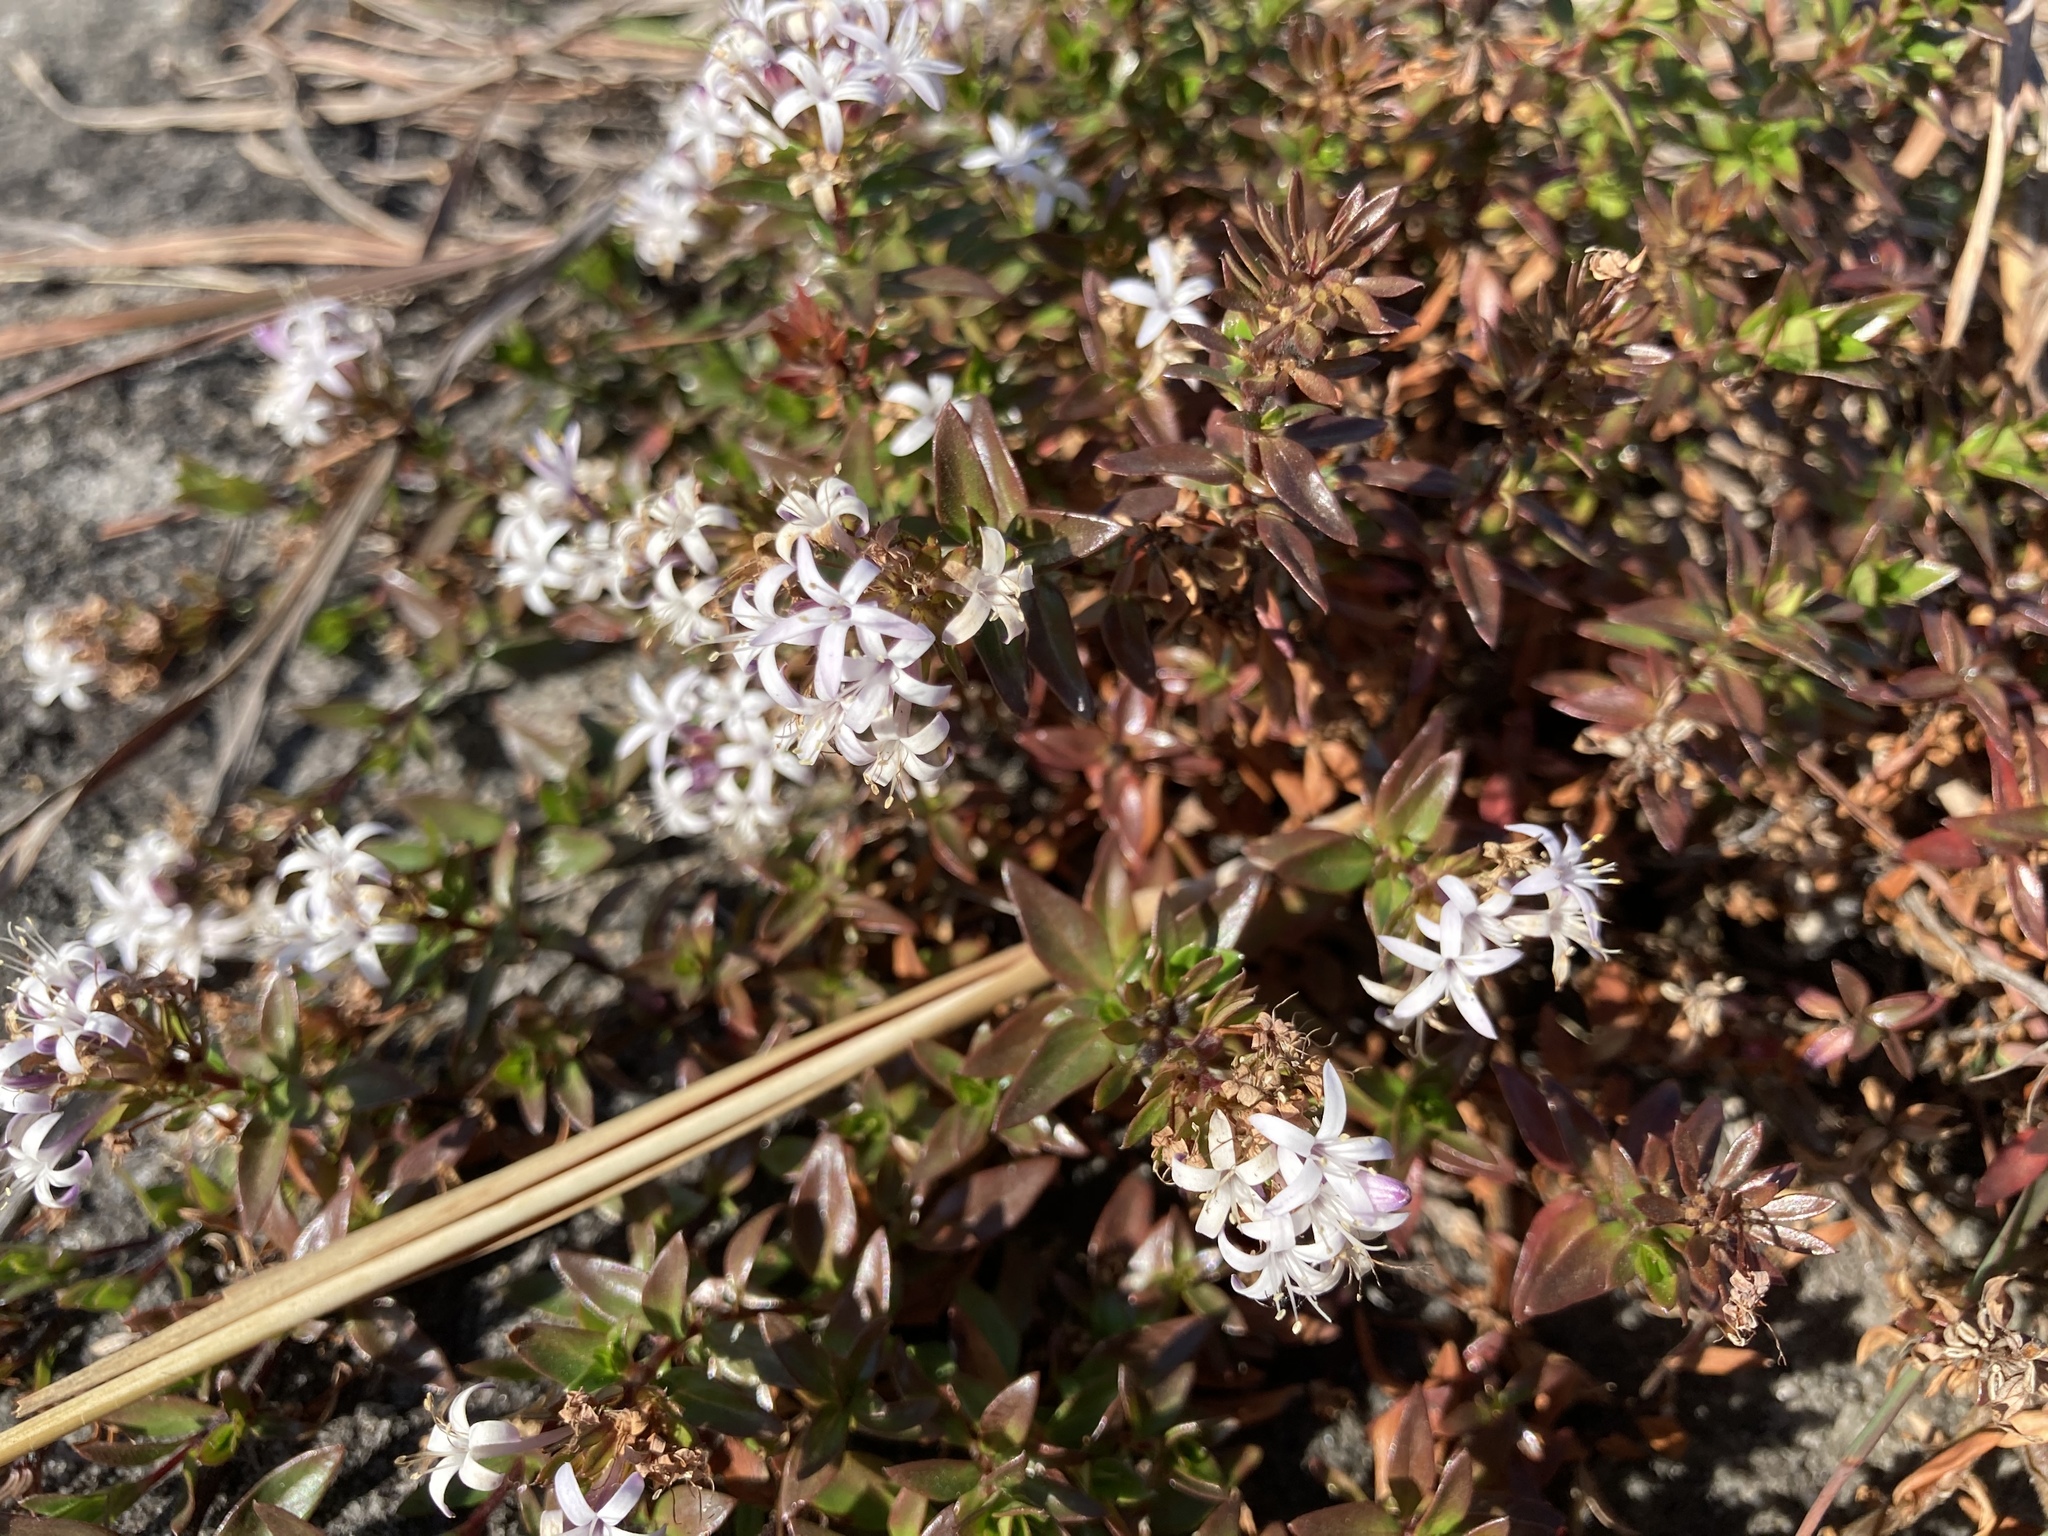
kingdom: Plantae
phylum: Tracheophyta
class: Magnoliopsida
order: Gentianales
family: Rubiaceae
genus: Otiophora
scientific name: Otiophora cupheoides
